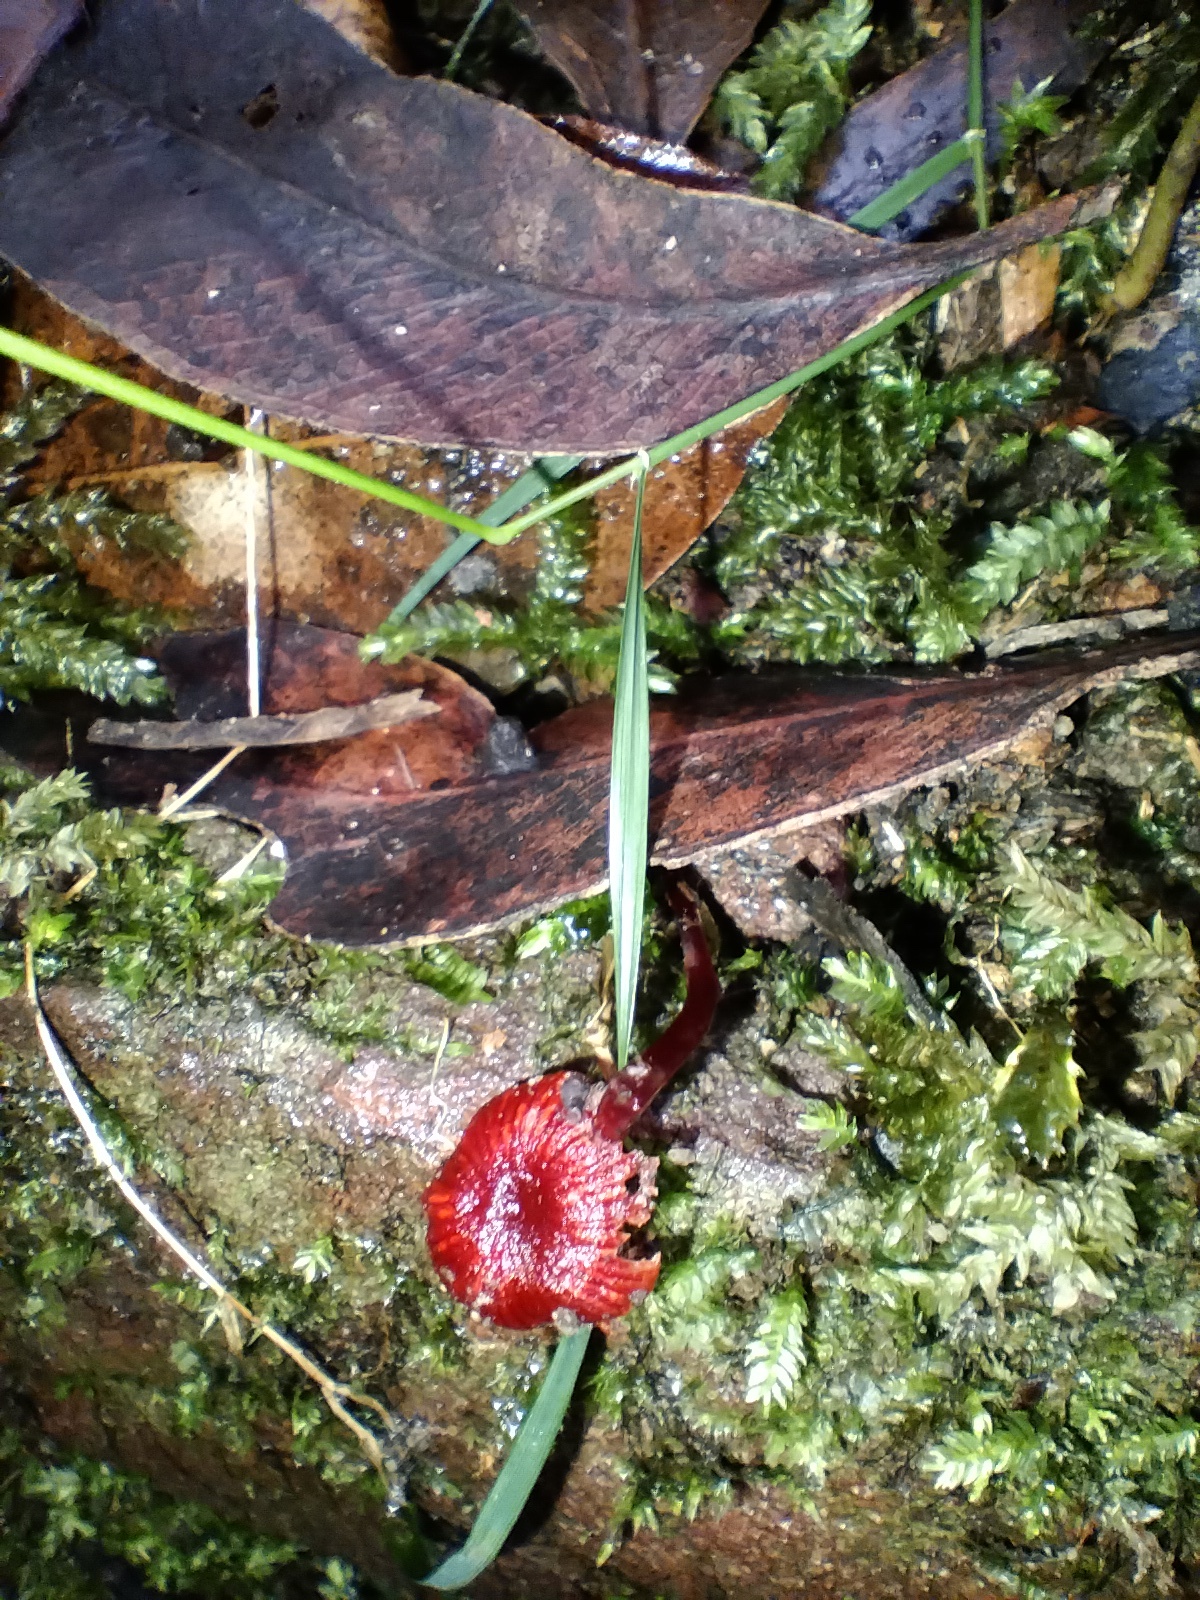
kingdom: Fungi
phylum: Basidiomycota
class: Agaricomycetes
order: Agaricales
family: Mycenaceae
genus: Cruentomycena
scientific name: Cruentomycena viscidocruenta
